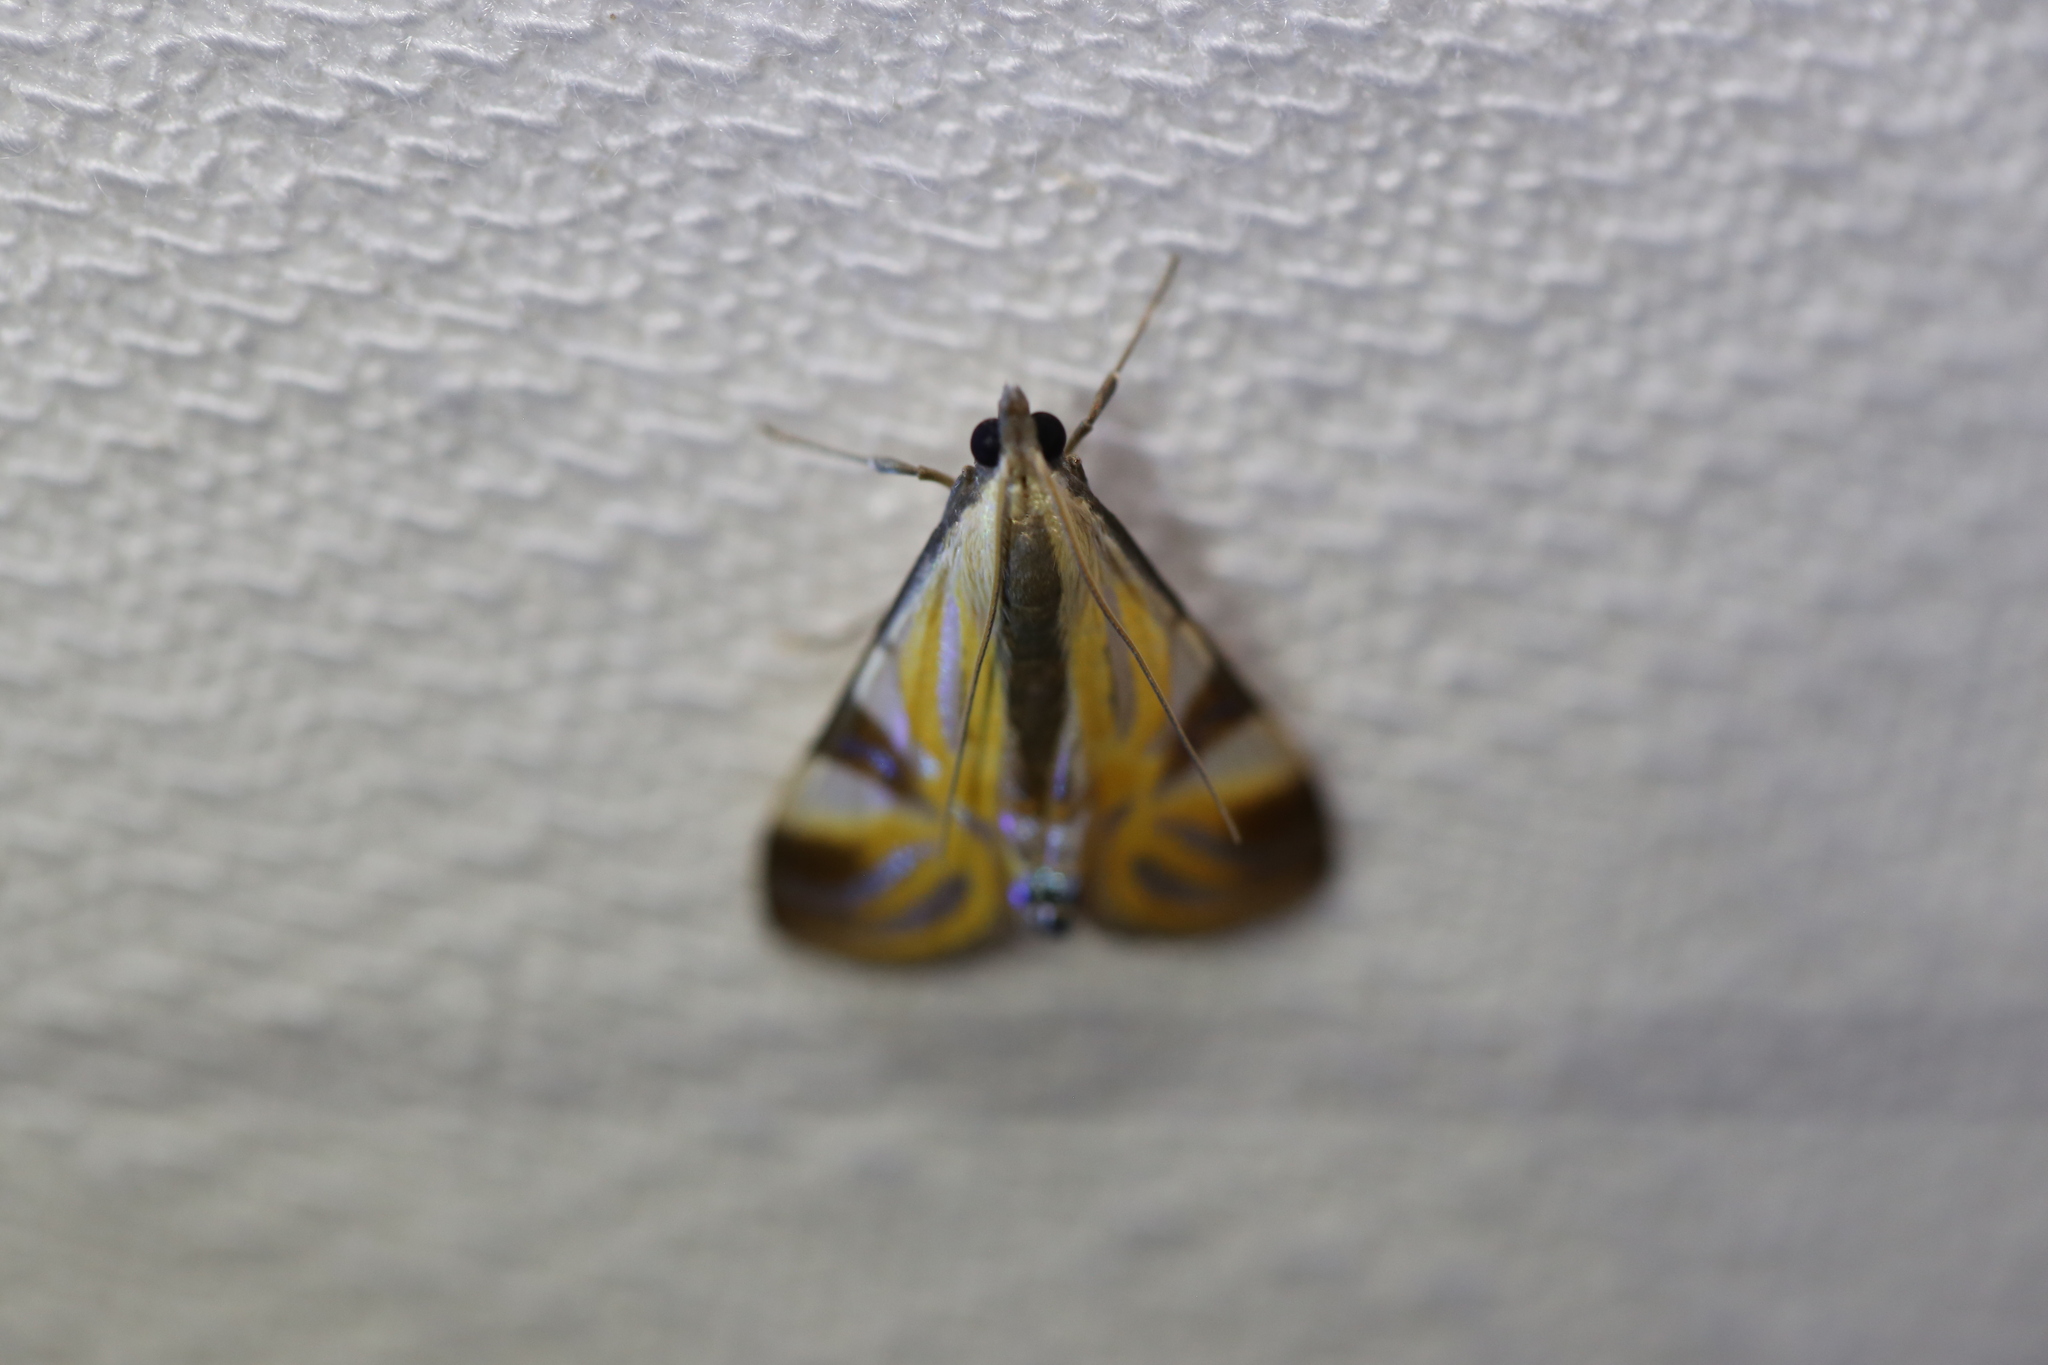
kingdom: Animalia
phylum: Arthropoda
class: Insecta
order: Lepidoptera
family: Crambidae
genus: Talanga
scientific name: Talanga tolumnialis
